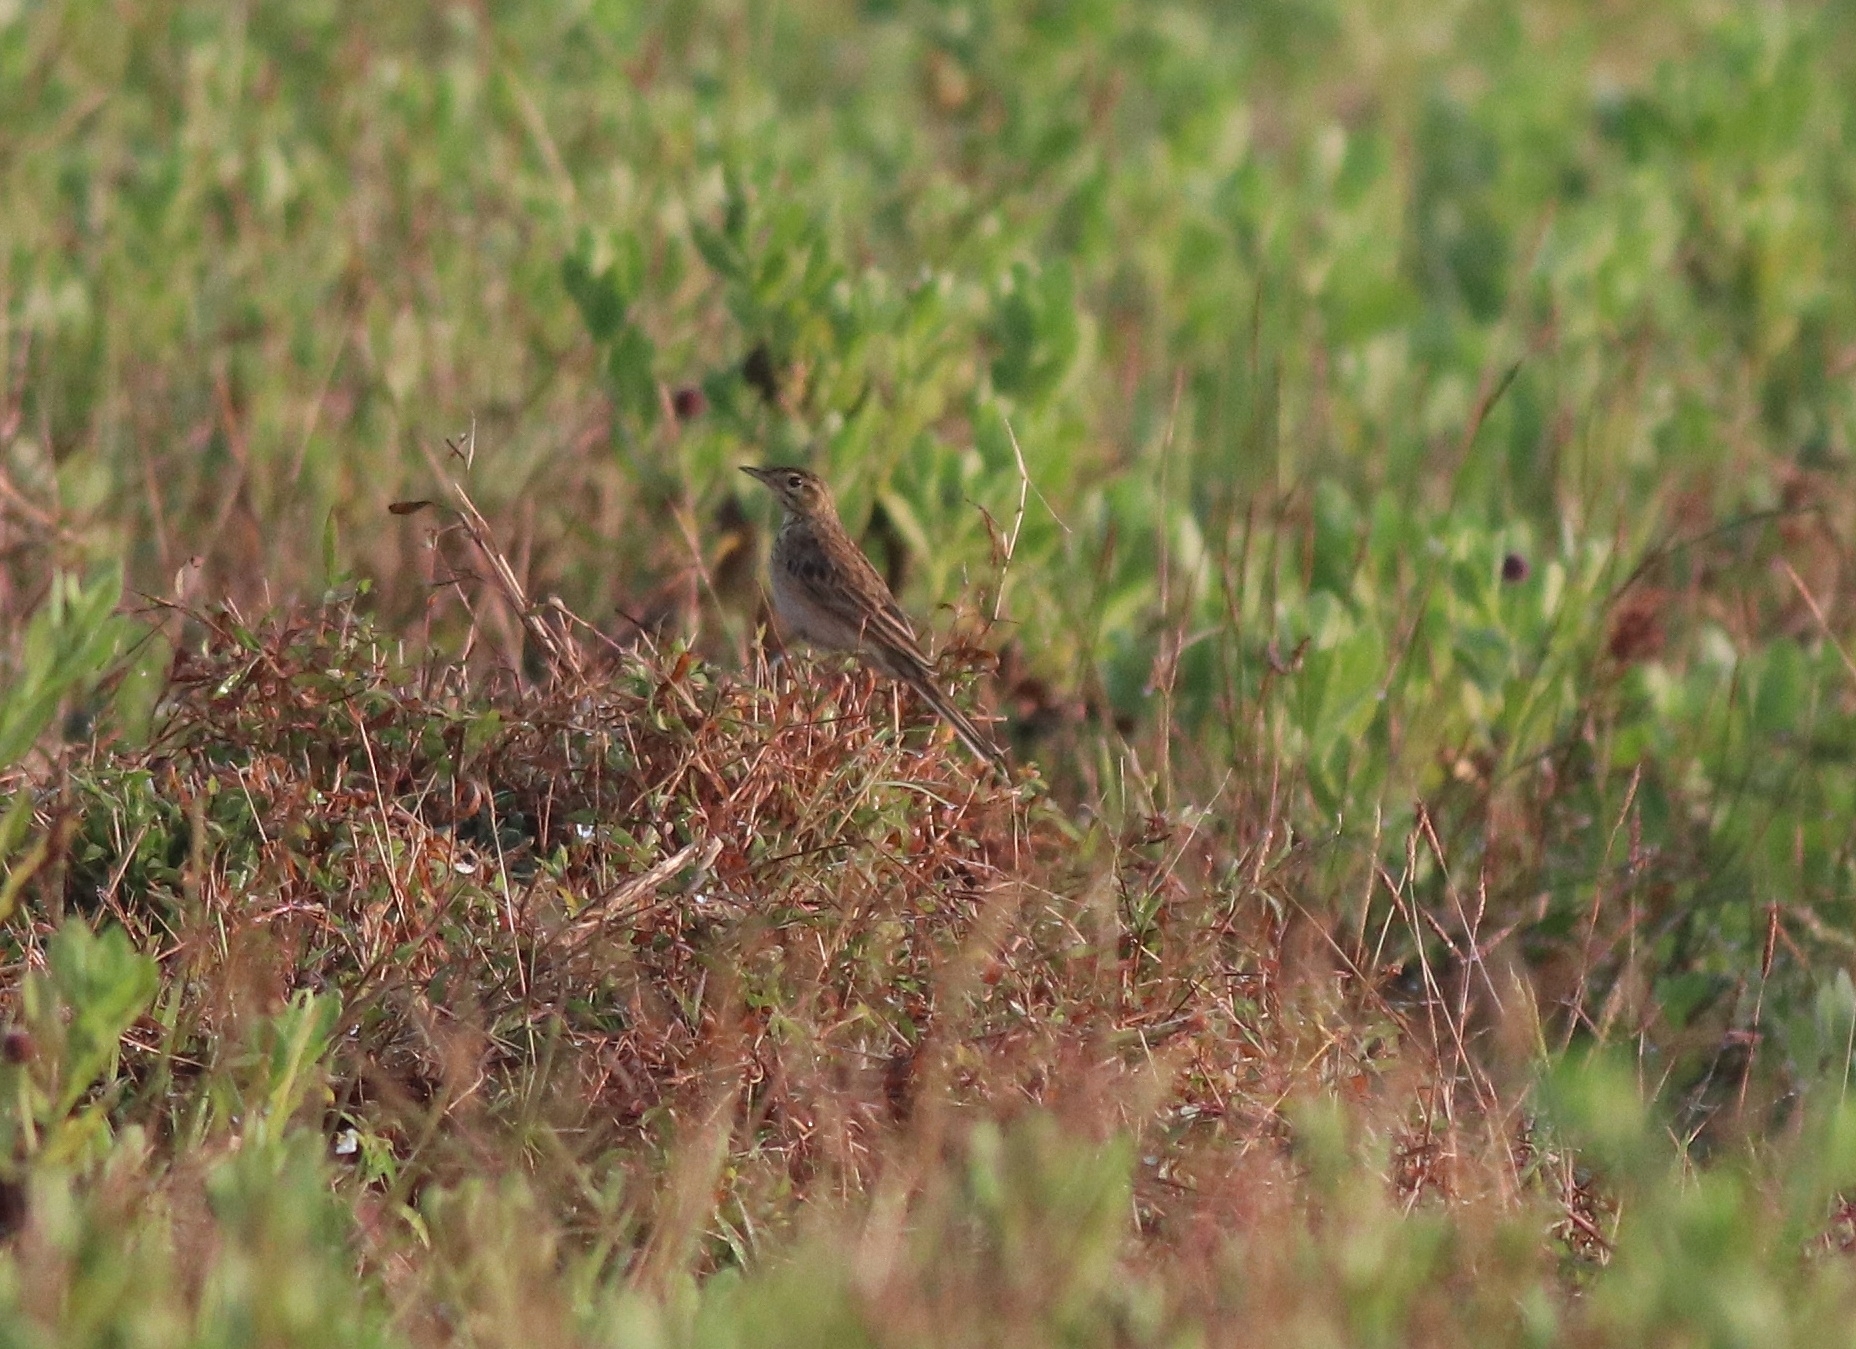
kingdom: Animalia
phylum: Chordata
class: Aves
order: Passeriformes
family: Motacillidae
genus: Anthus
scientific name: Anthus richardi
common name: Richard's pipit
